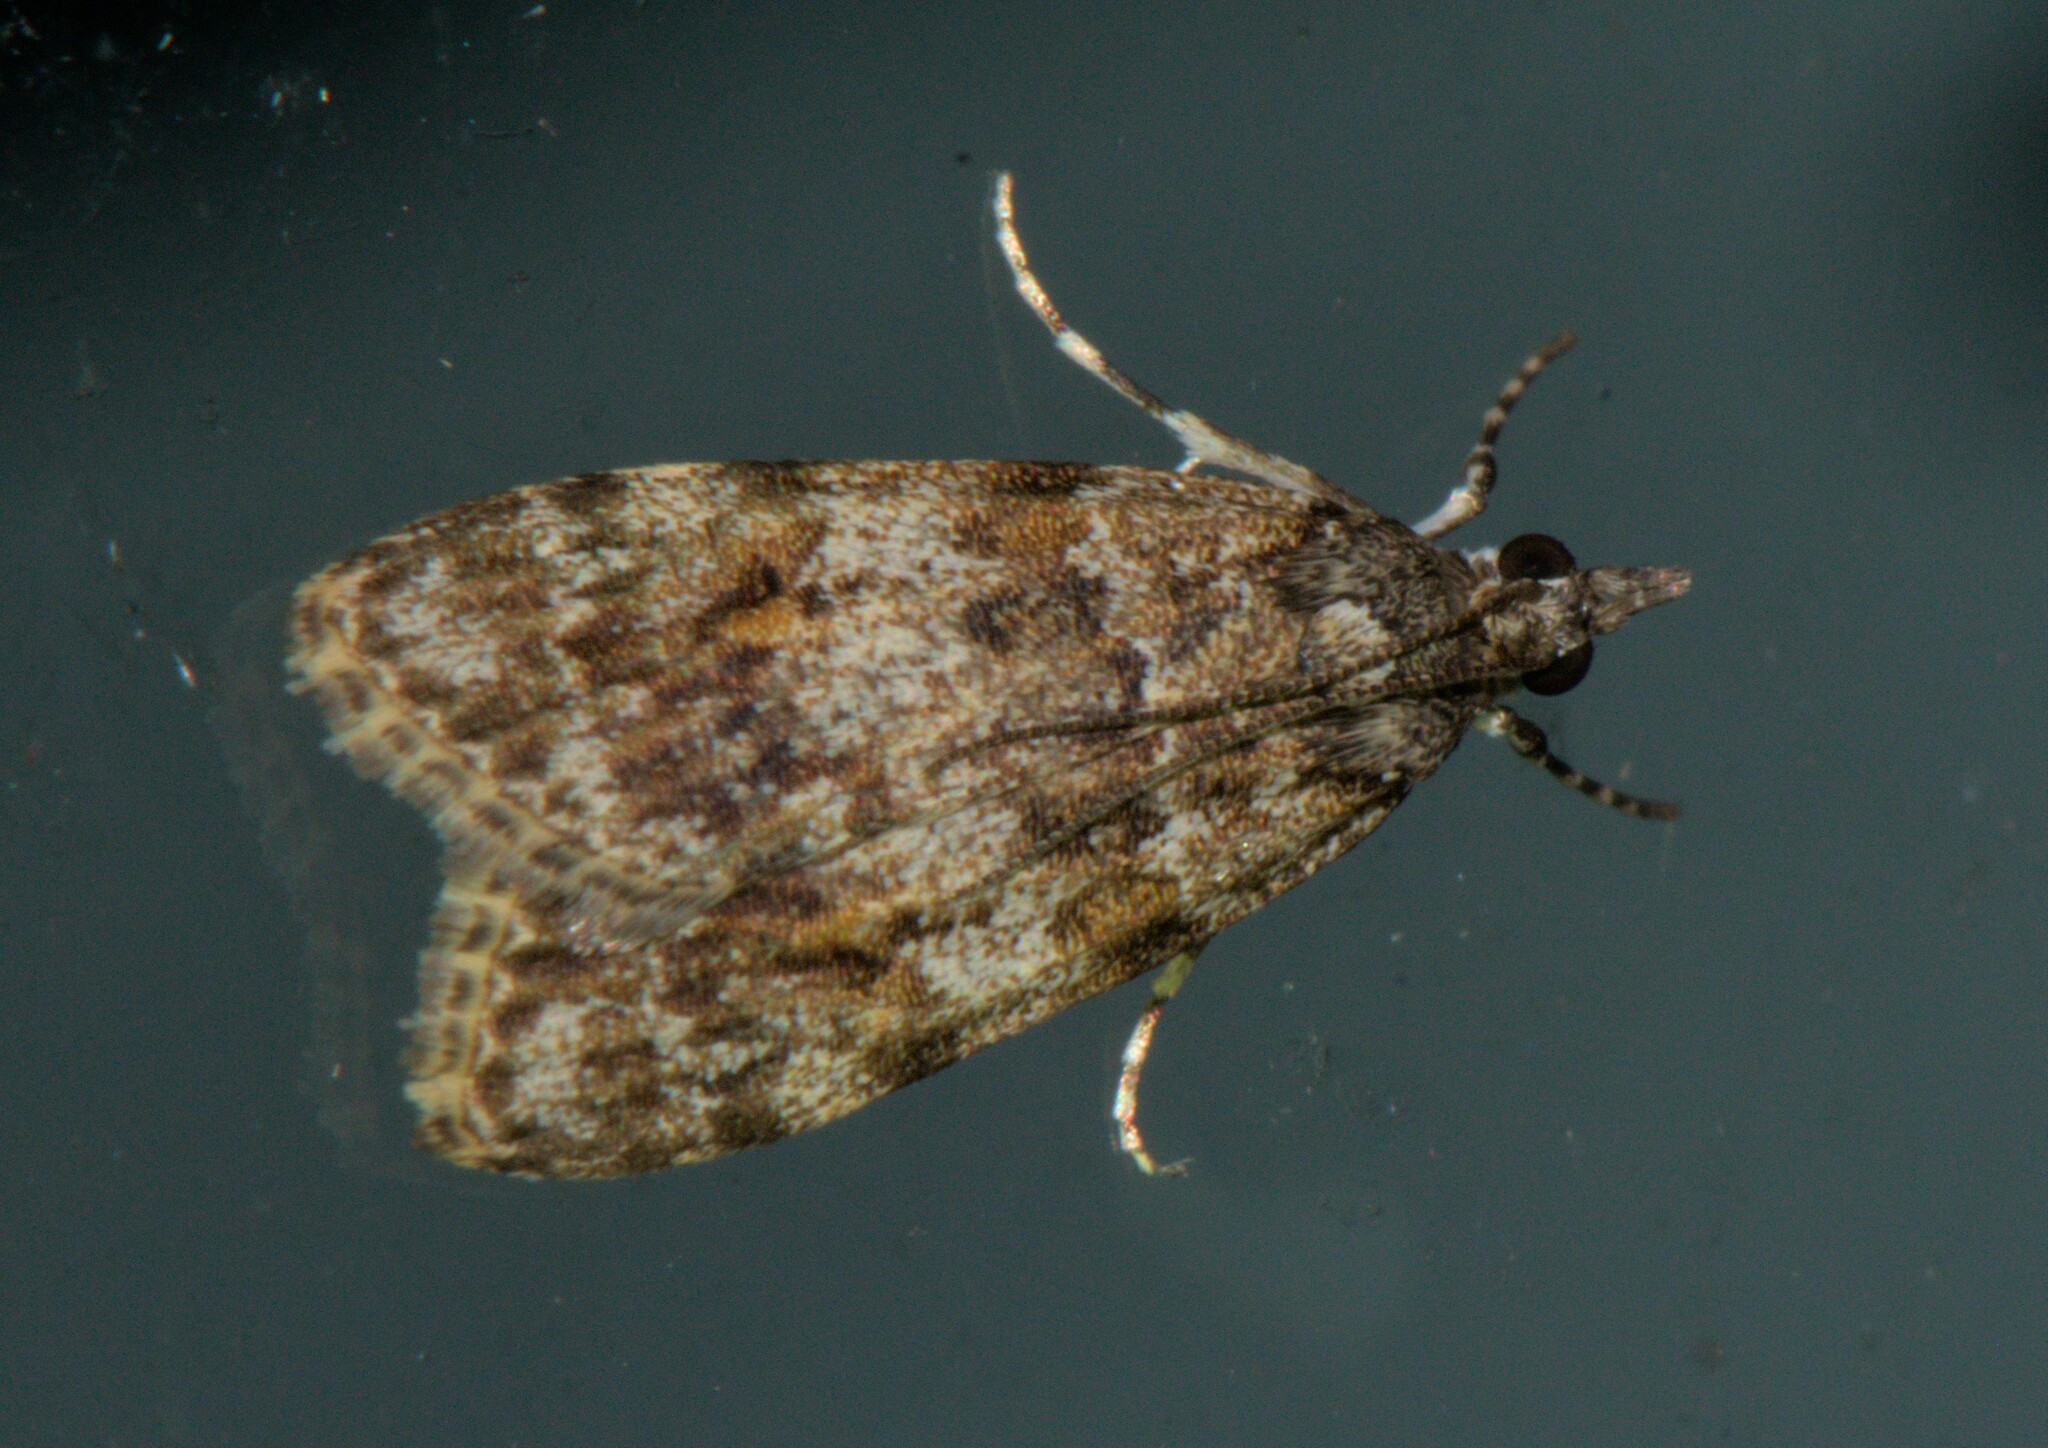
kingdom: Animalia
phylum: Arthropoda
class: Insecta
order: Lepidoptera
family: Crambidae
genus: Scoparia
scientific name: Scoparia murificalis
